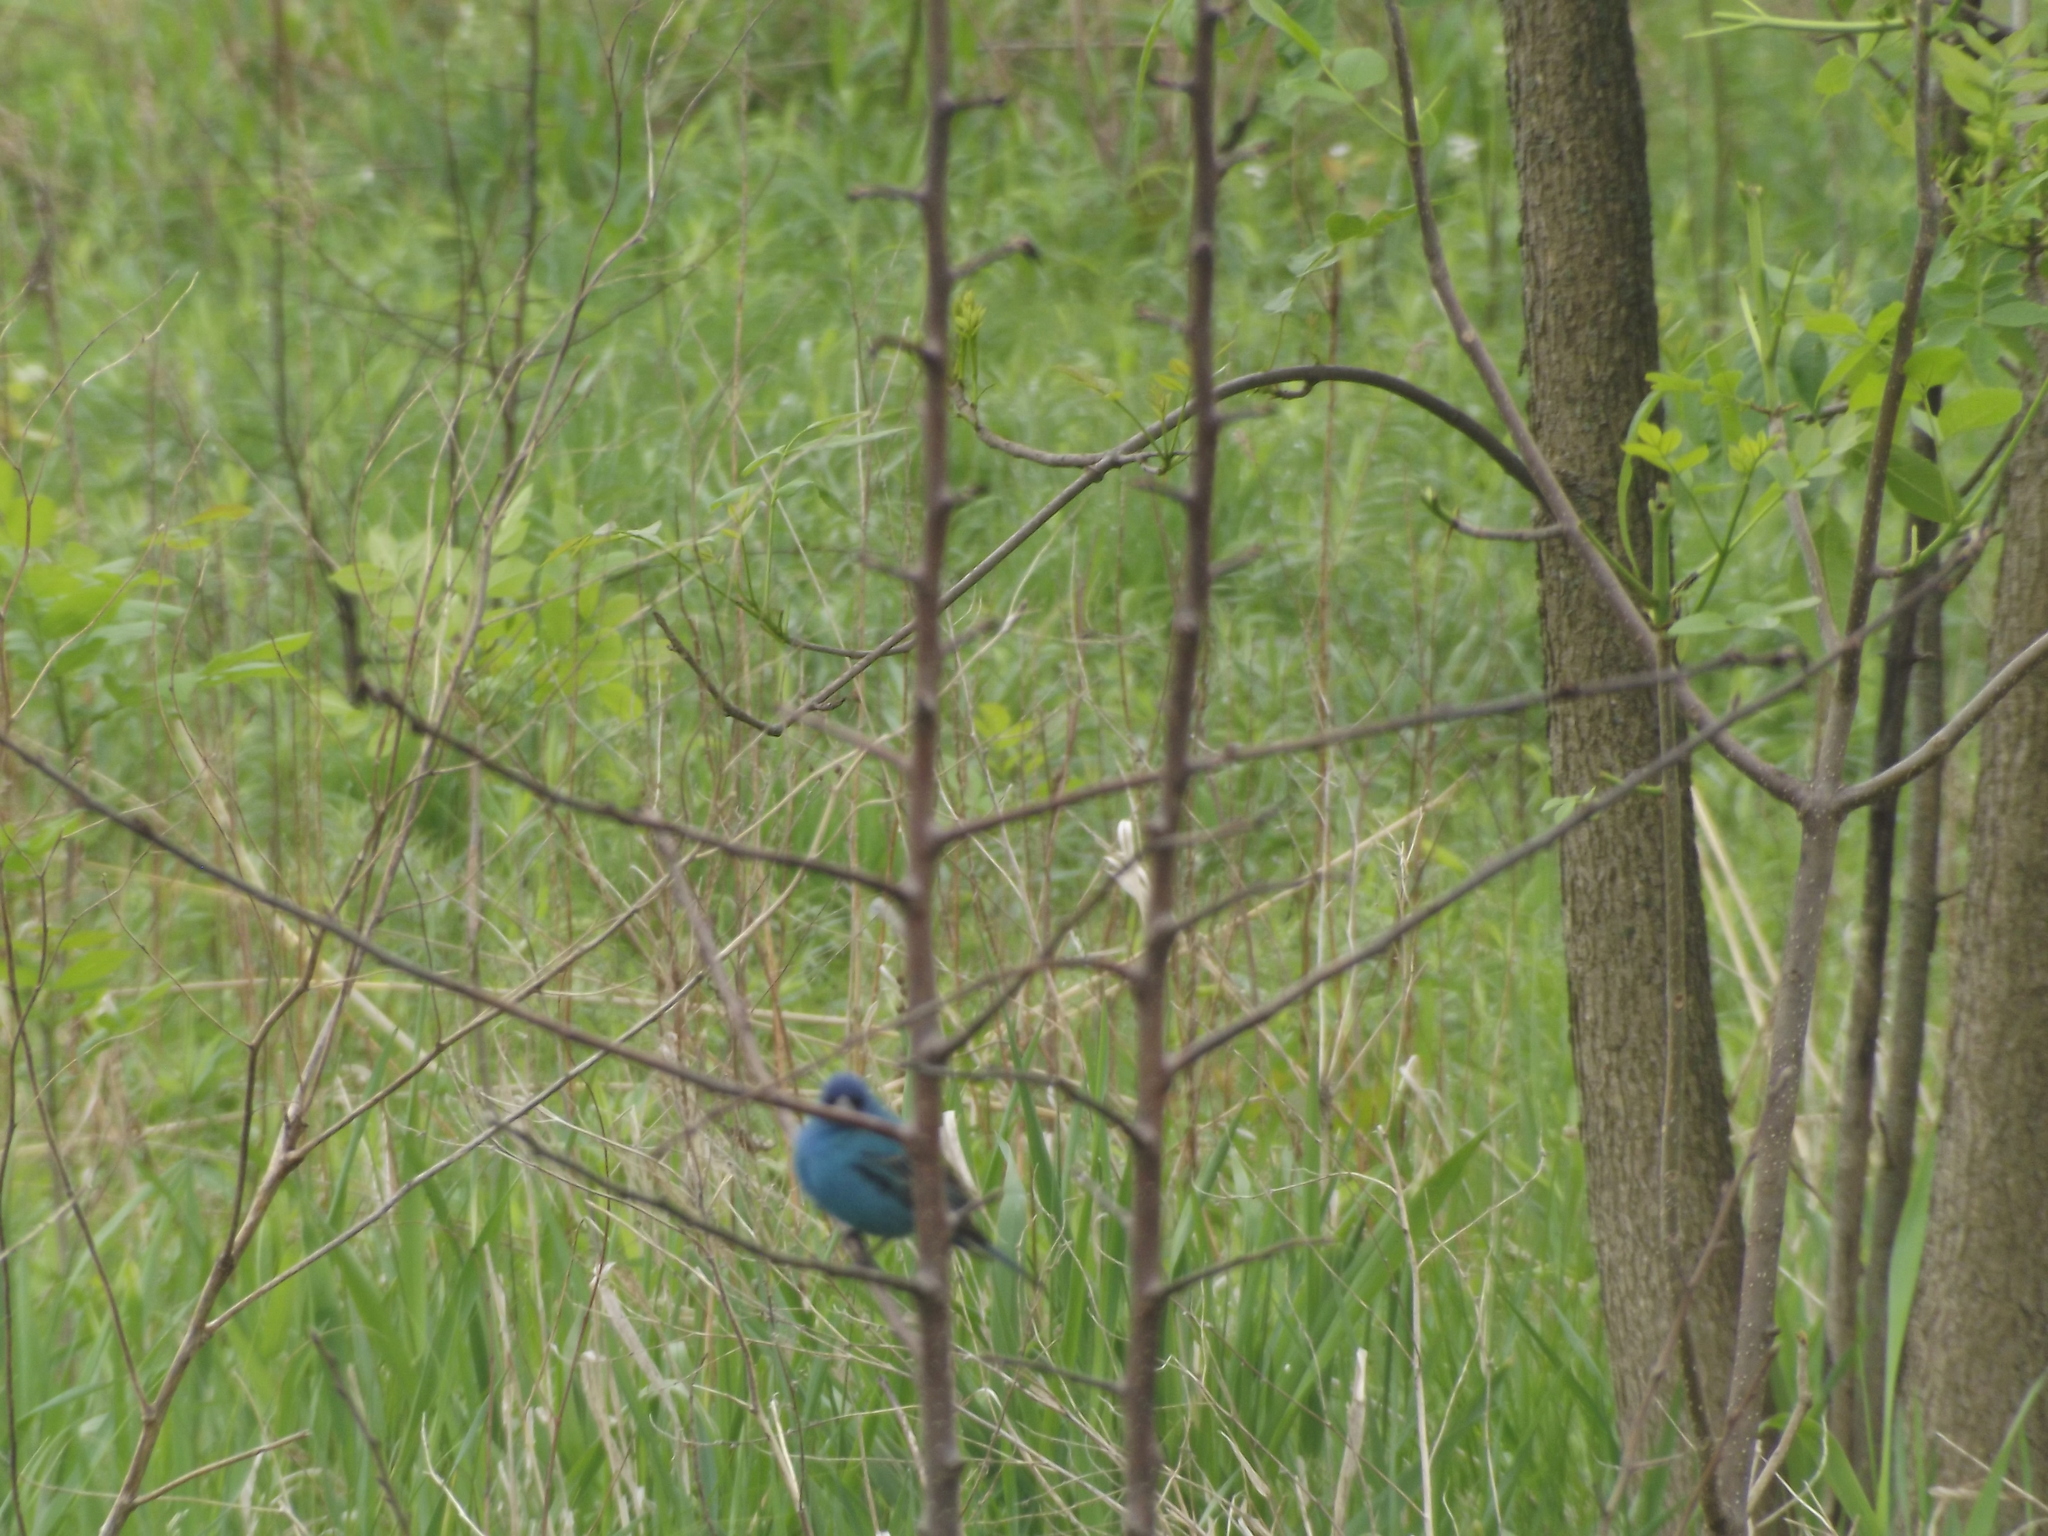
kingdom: Animalia
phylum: Chordata
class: Aves
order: Passeriformes
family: Cardinalidae
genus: Passerina
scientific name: Passerina cyanea
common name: Indigo bunting
